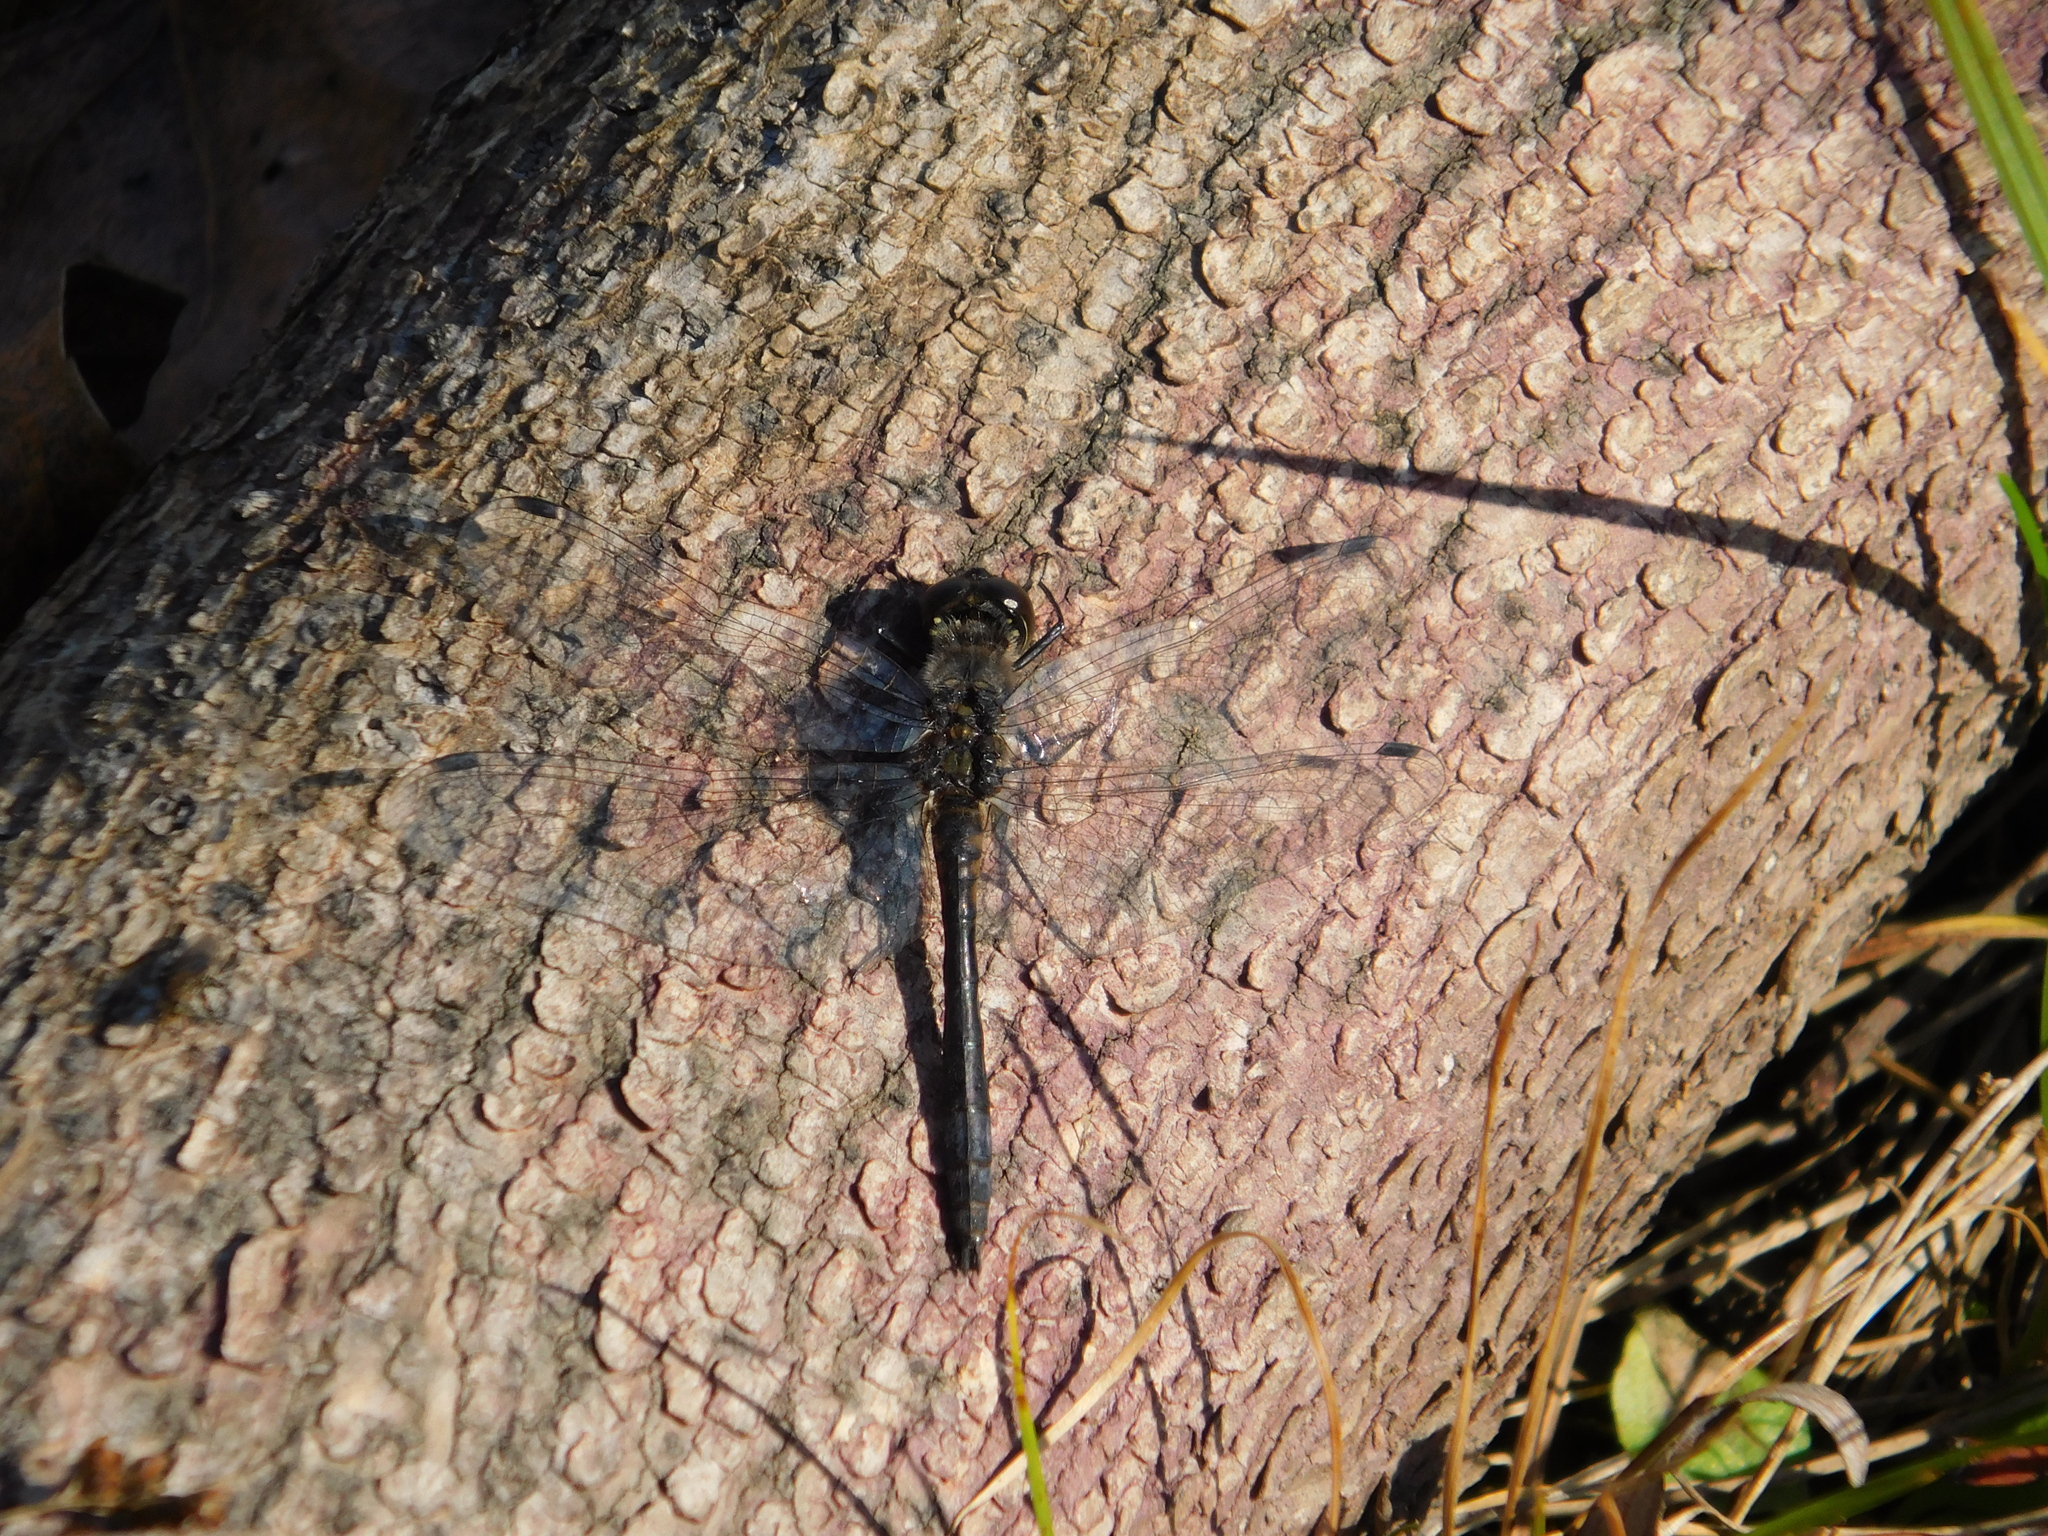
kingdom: Animalia
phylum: Arthropoda
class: Insecta
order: Odonata
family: Libellulidae
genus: Sympetrum
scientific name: Sympetrum danae
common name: Black darter
